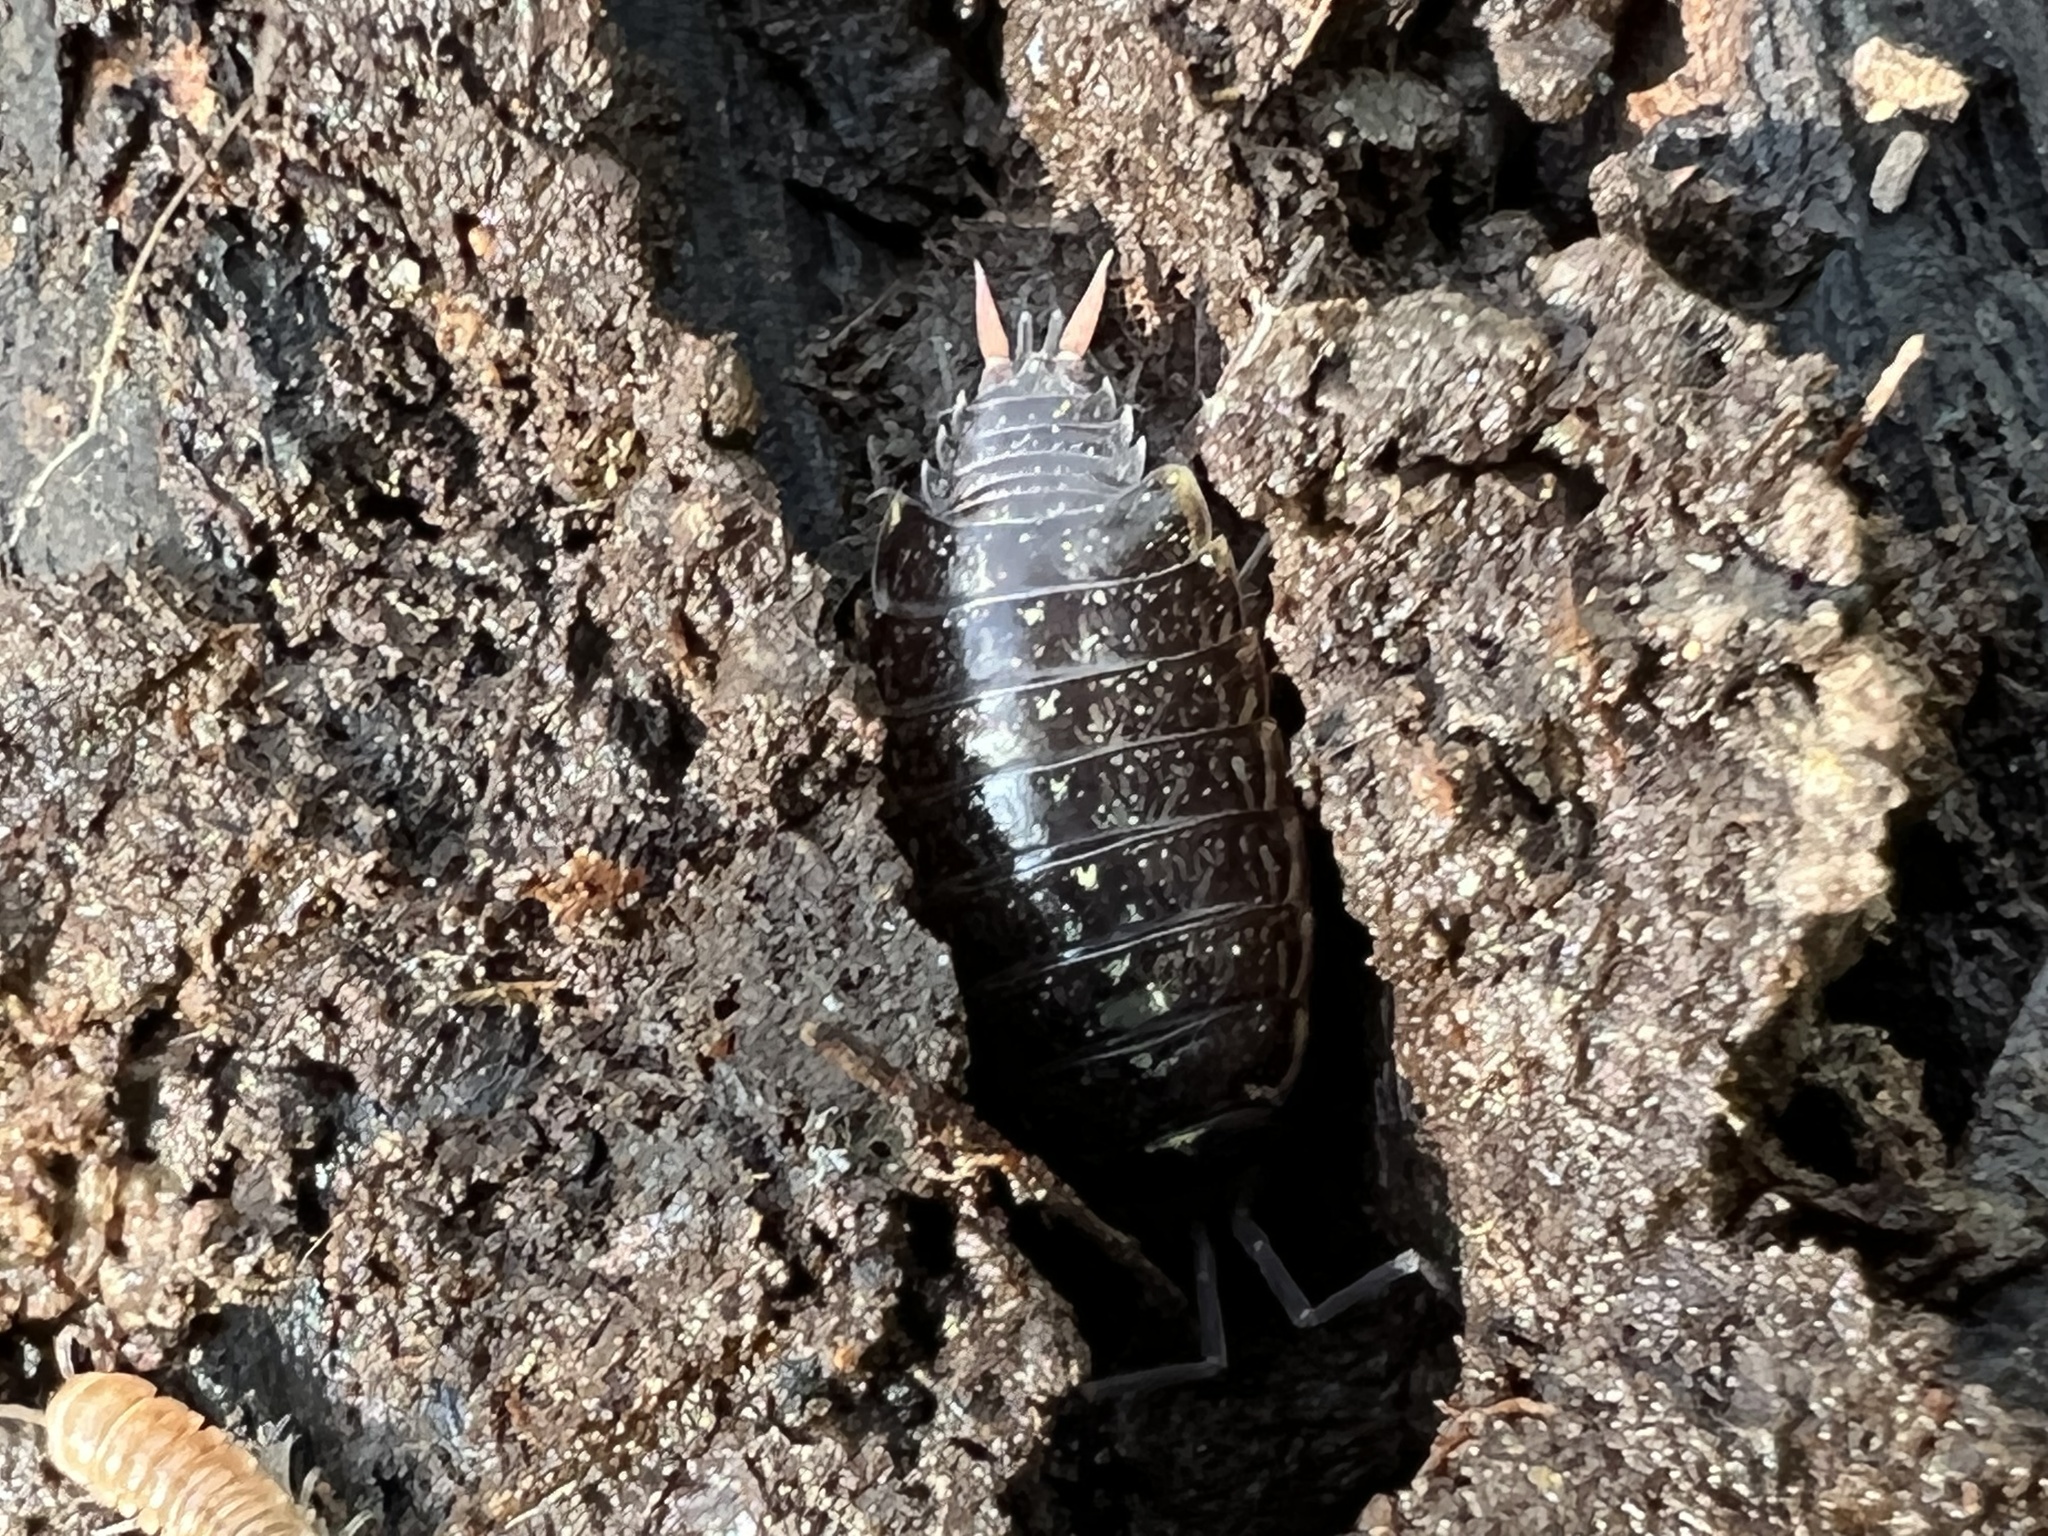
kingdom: Animalia
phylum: Arthropoda
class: Malacostraca
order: Isopoda
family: Philosciidae
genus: Philoscia
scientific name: Philoscia muscorum
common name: Common striped woodlouse
